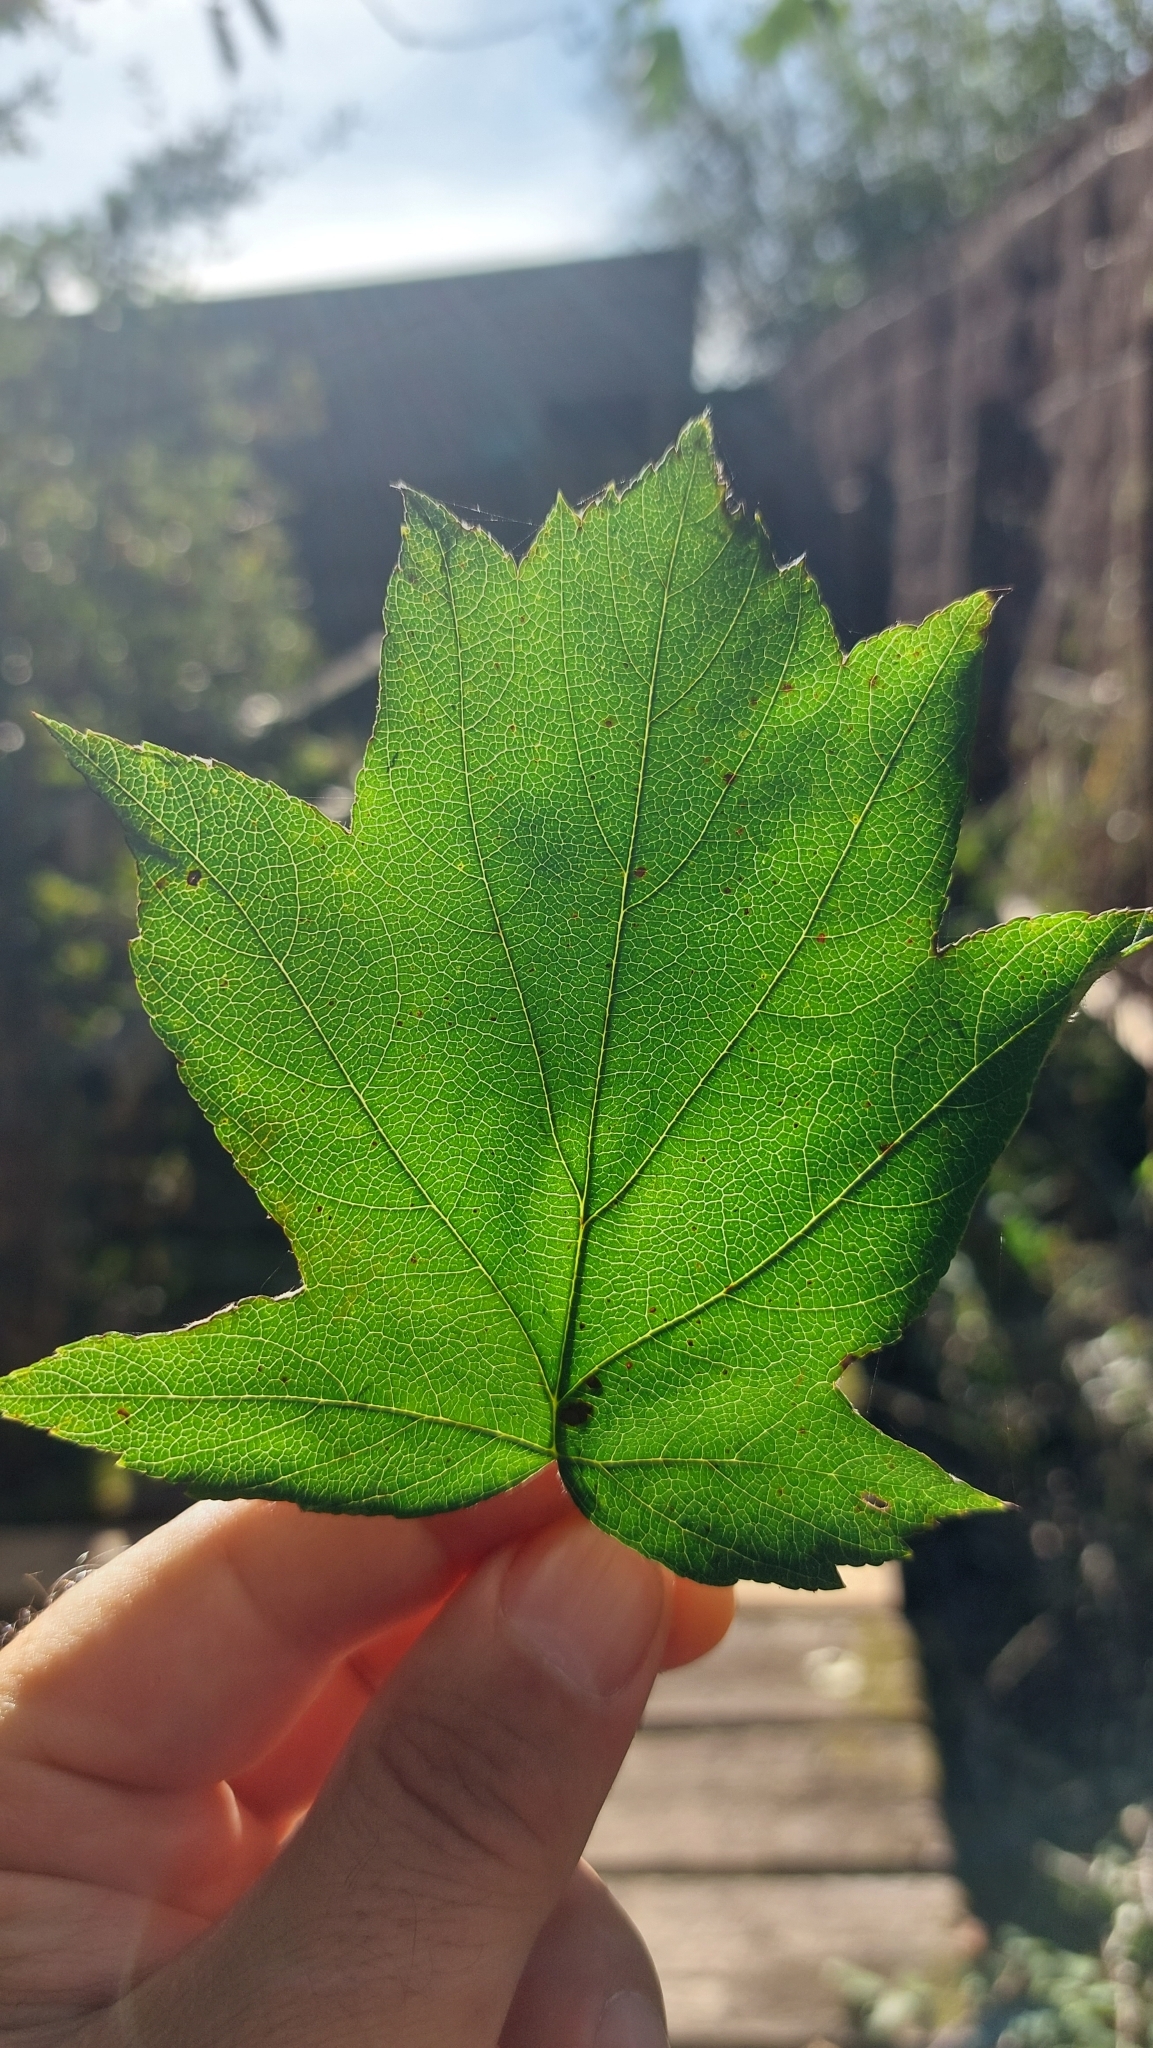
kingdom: Plantae
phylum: Tracheophyta
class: Magnoliopsida
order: Rosales
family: Rosaceae
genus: Torminalis
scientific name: Torminalis glaberrima
